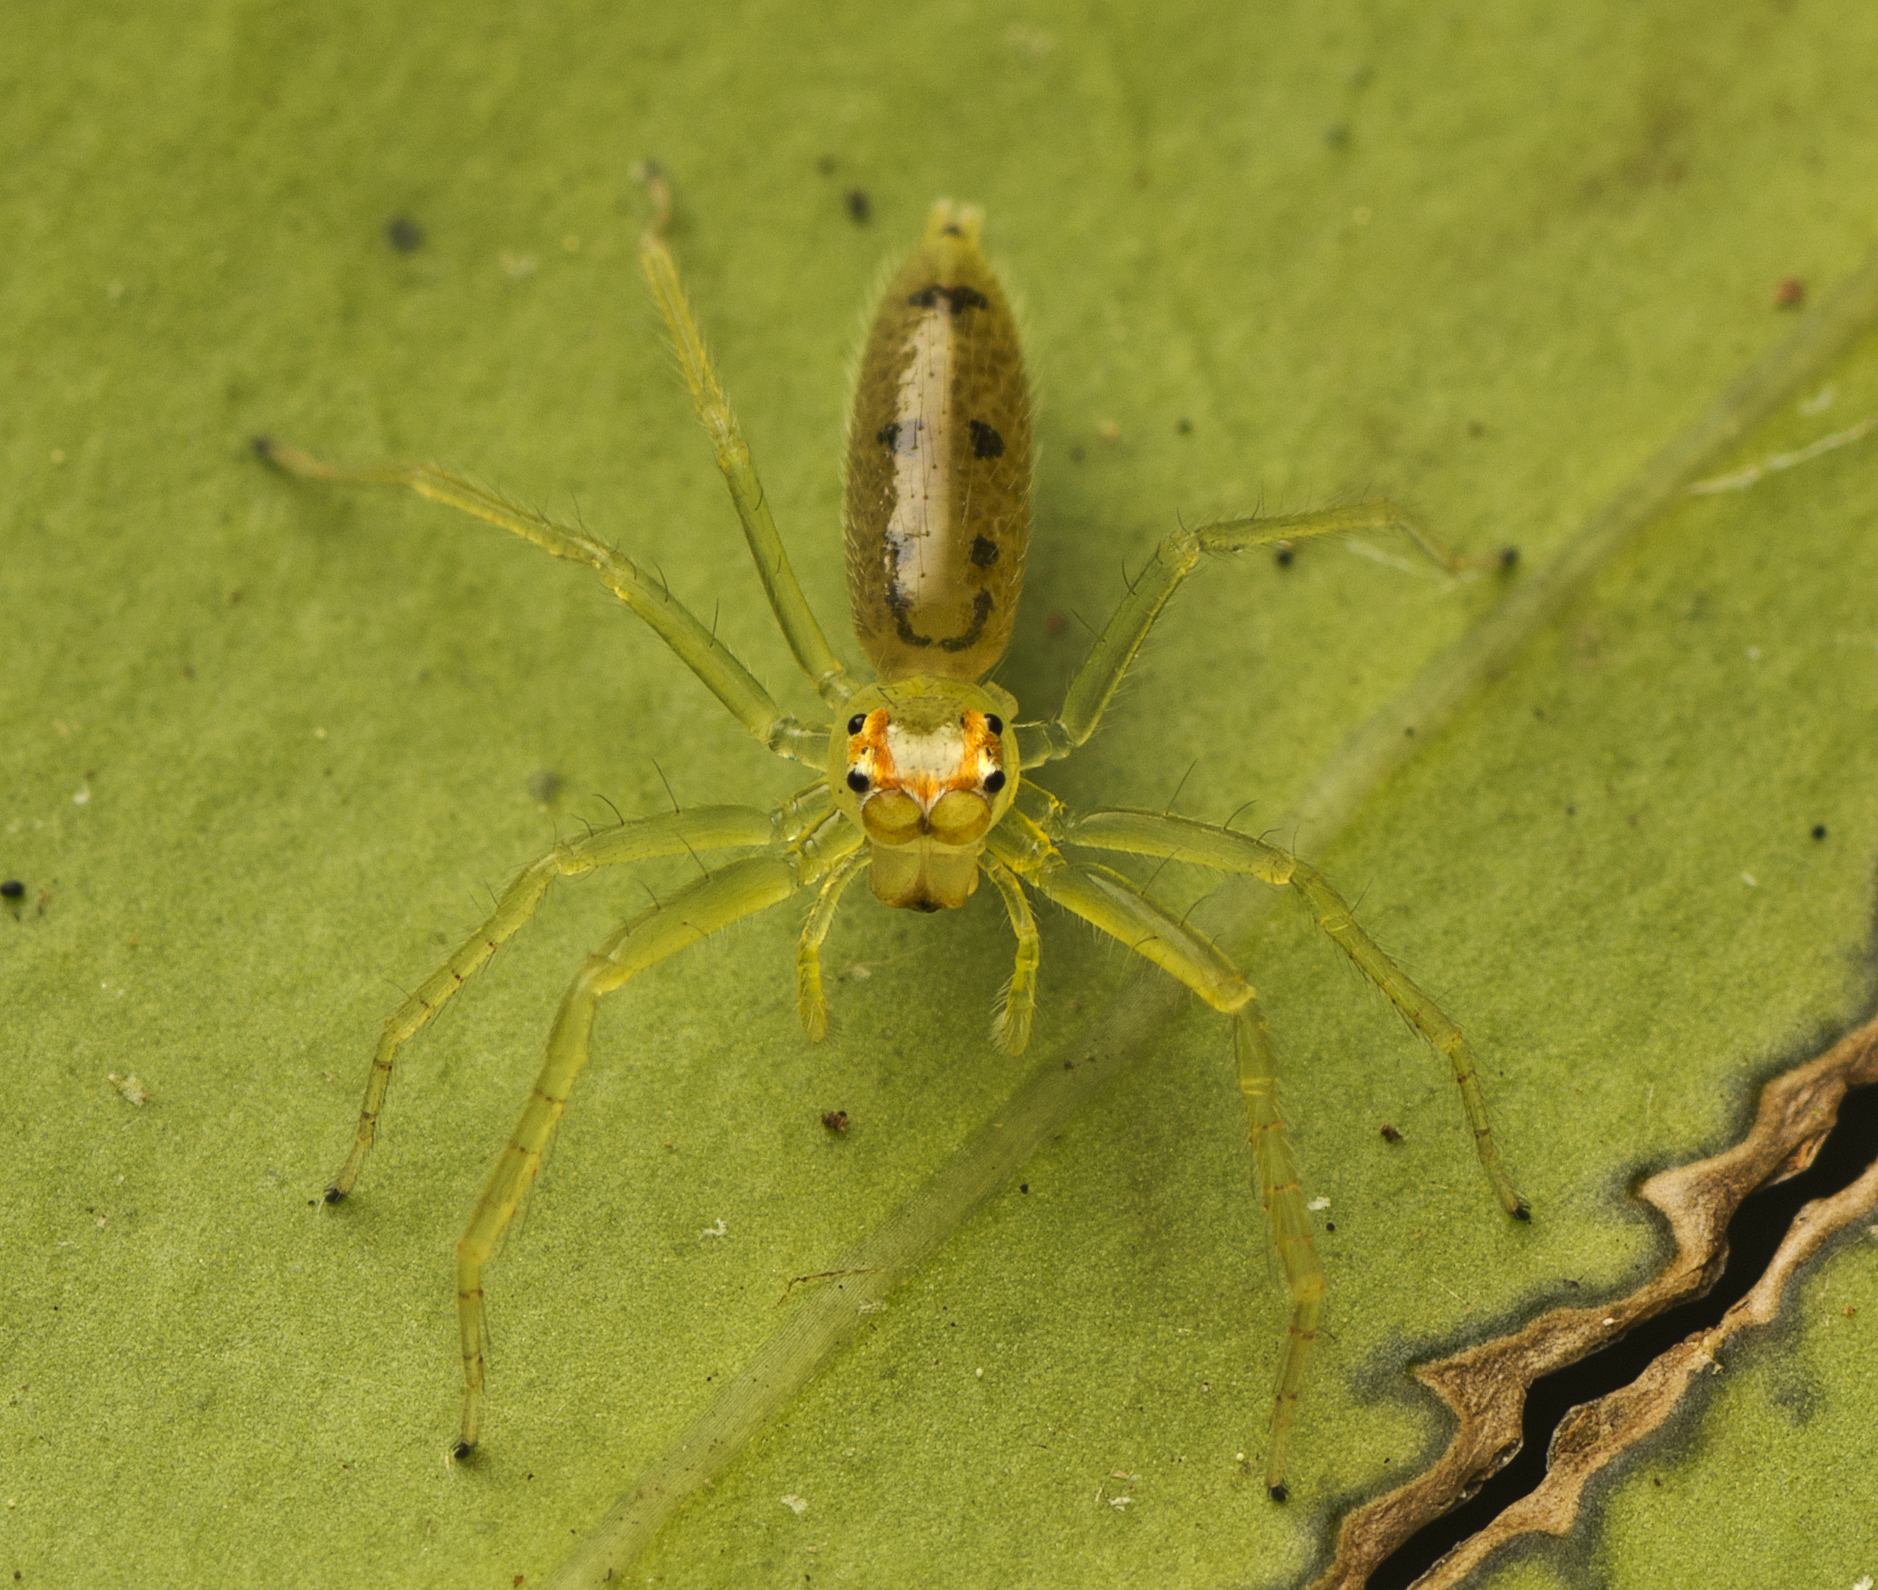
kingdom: Animalia
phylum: Arthropoda
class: Arachnida
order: Araneae
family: Salticidae
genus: Astilodes
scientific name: Astilodes mariae
